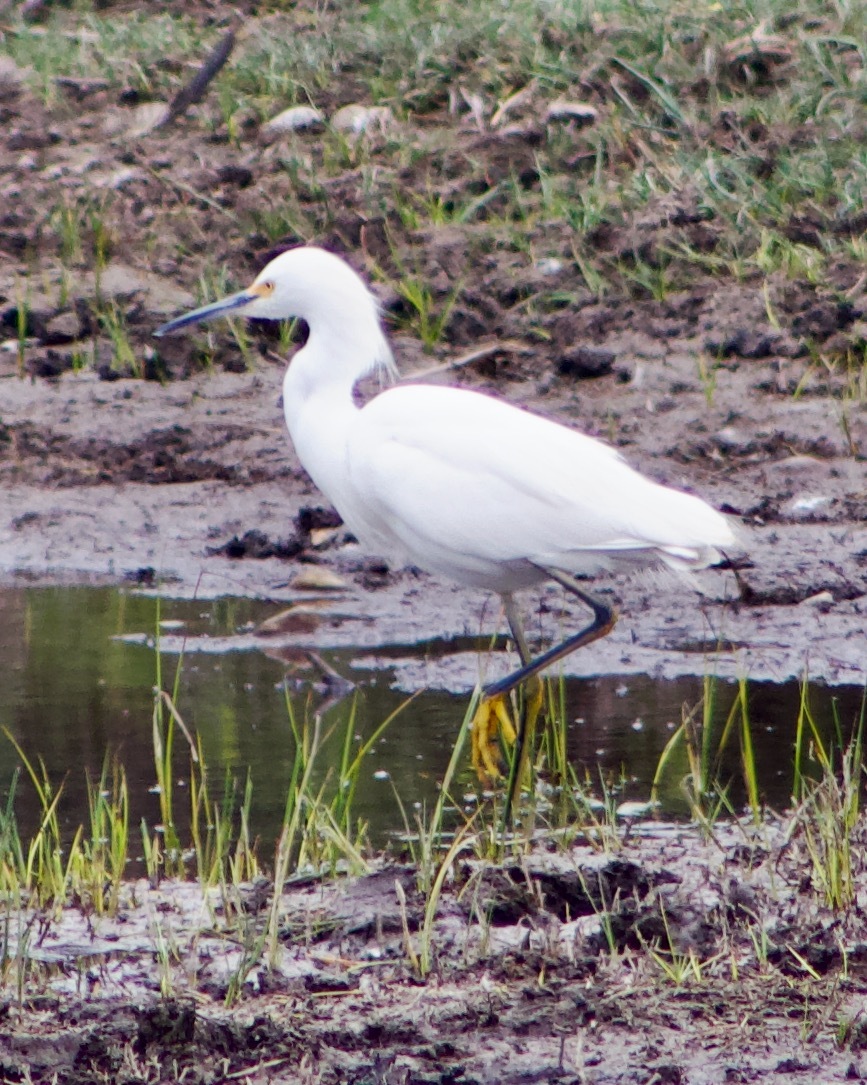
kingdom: Animalia
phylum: Chordata
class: Aves
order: Pelecaniformes
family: Ardeidae
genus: Egretta
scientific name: Egretta thula
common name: Snowy egret
